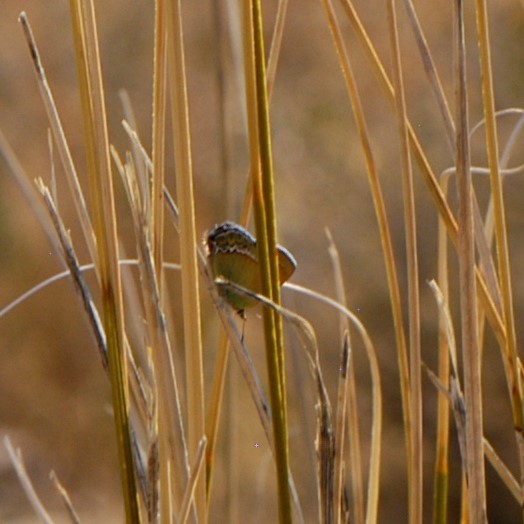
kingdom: Animalia
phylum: Arthropoda
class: Insecta
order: Lepidoptera
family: Lycaenidae
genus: Sandia
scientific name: Sandia mcfarlandi
